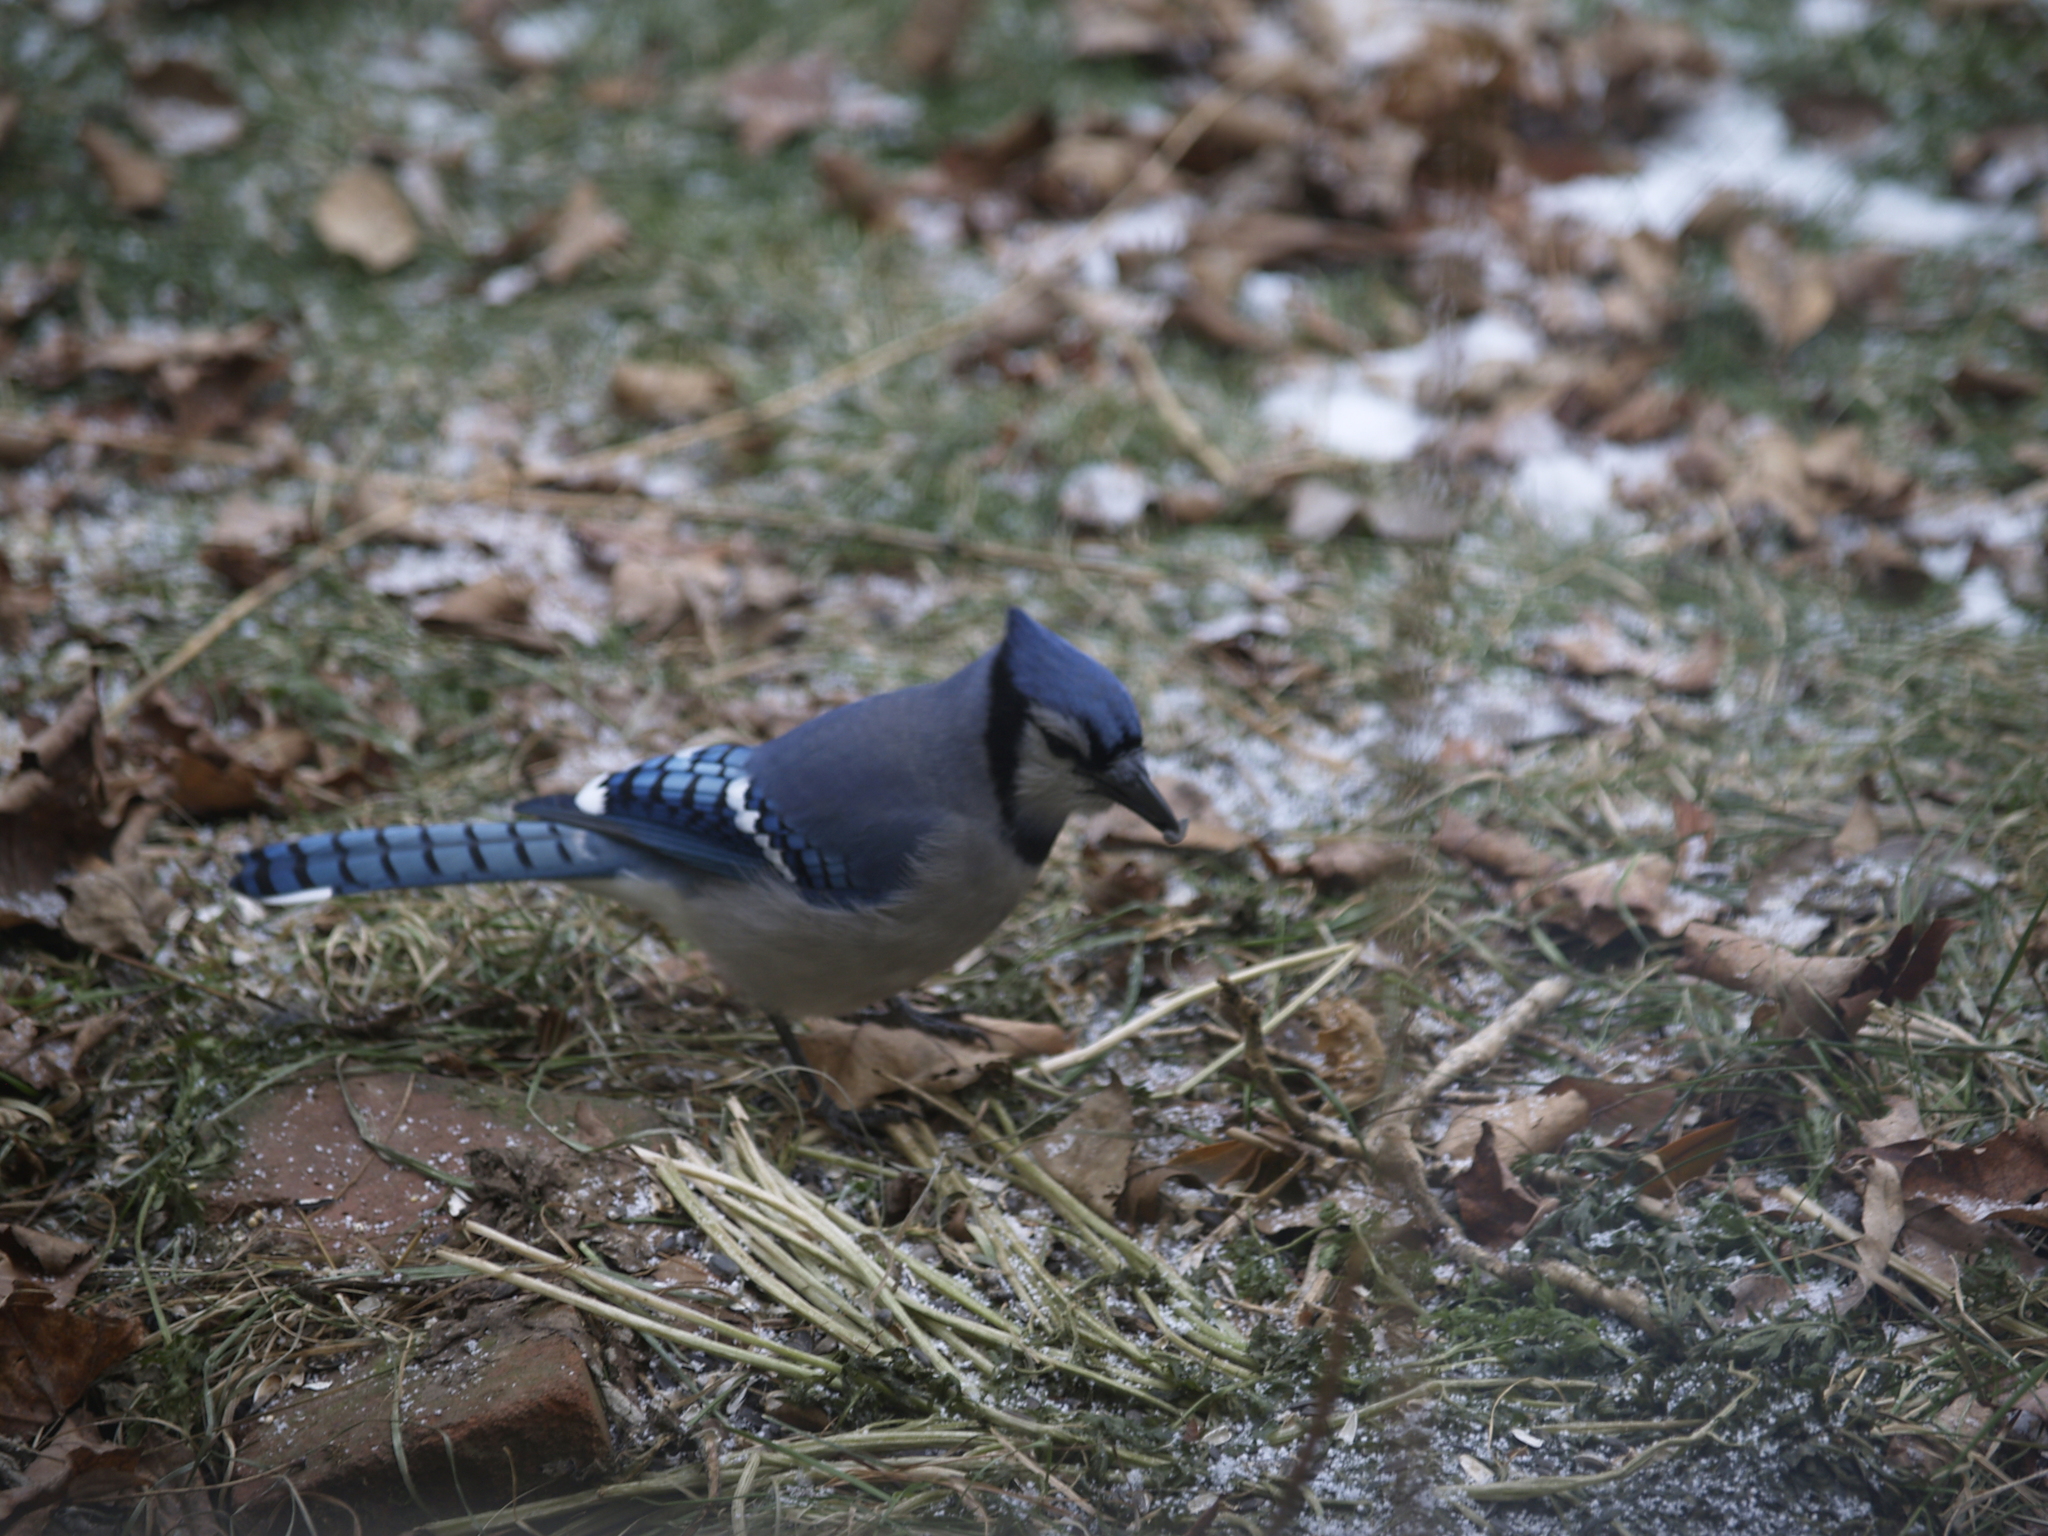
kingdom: Animalia
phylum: Chordata
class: Aves
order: Passeriformes
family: Corvidae
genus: Cyanocitta
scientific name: Cyanocitta cristata
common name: Blue jay
